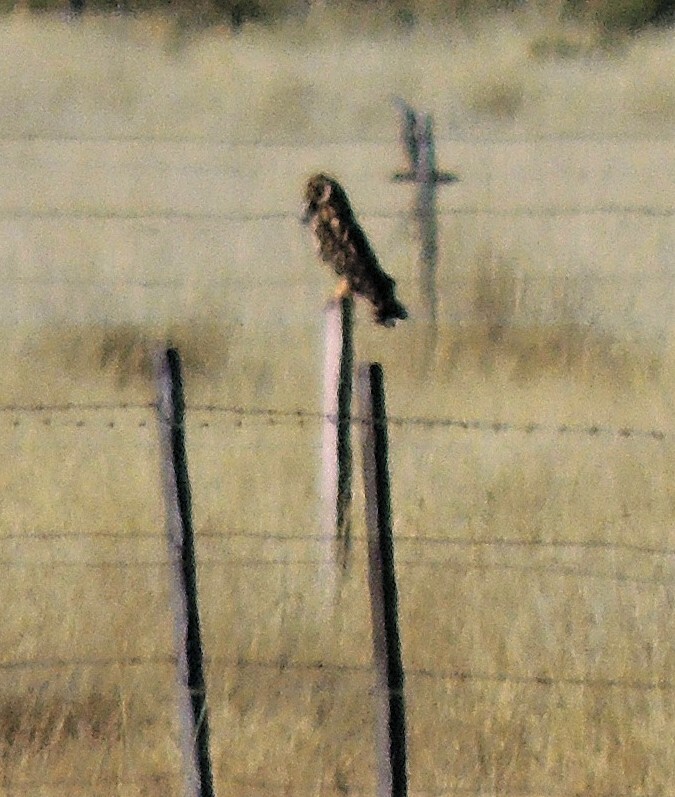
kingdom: Animalia
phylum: Chordata
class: Aves
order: Strigiformes
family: Strigidae
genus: Asio
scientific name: Asio flammeus
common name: Short-eared owl
